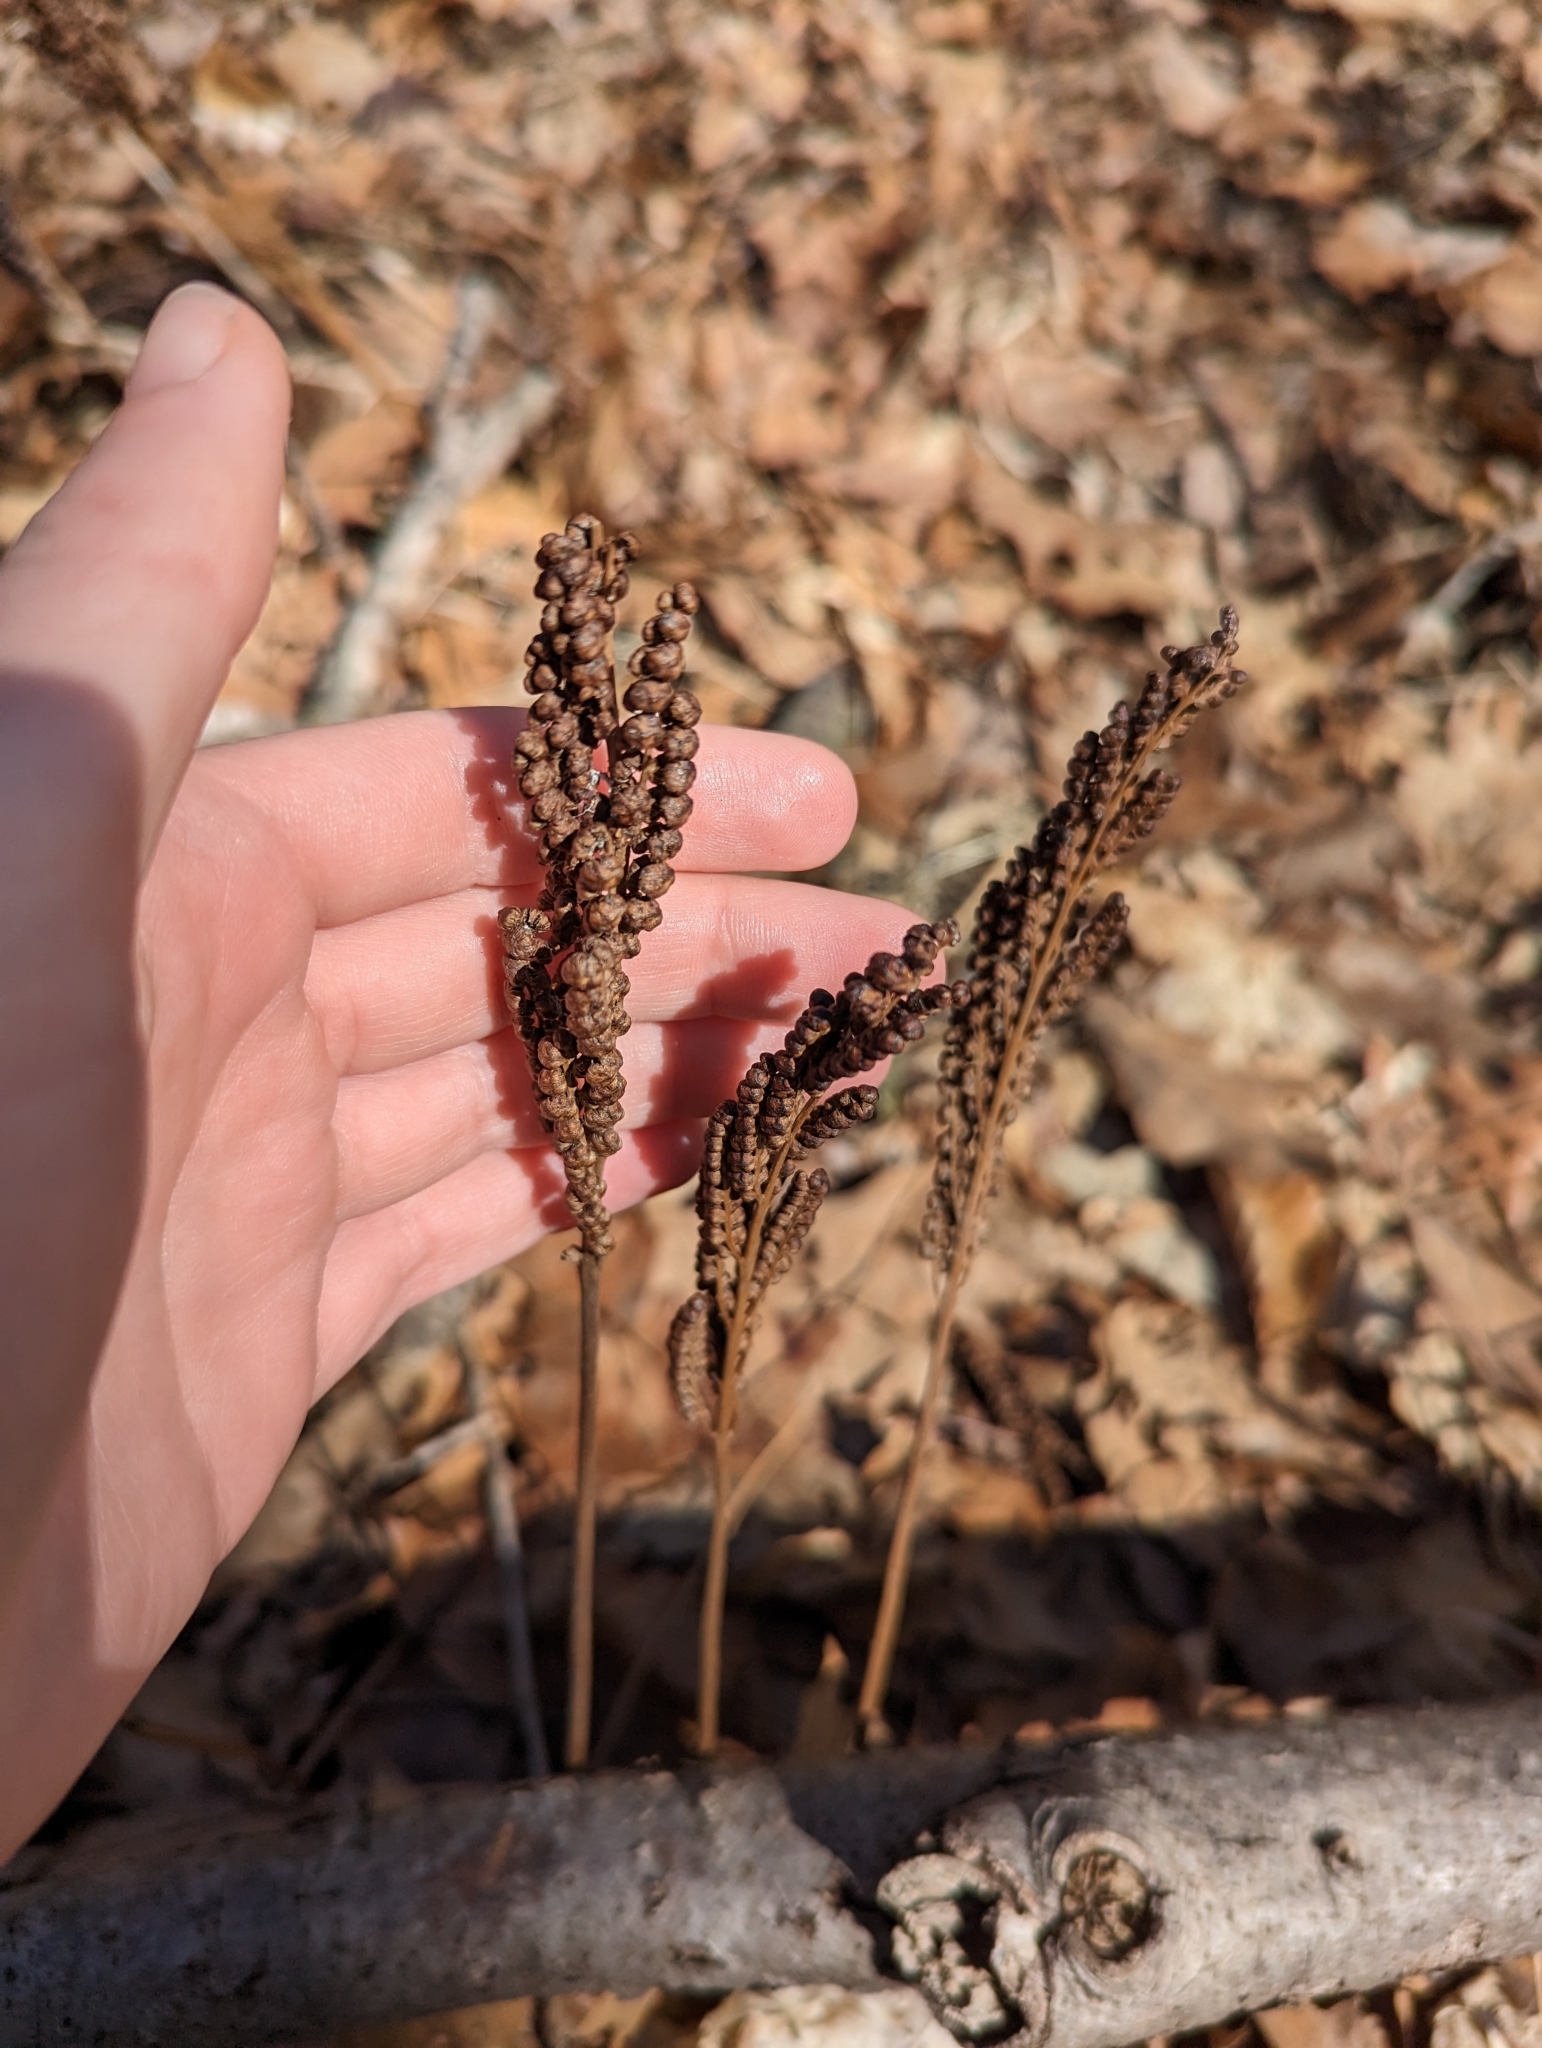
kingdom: Plantae
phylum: Tracheophyta
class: Polypodiopsida
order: Polypodiales
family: Onocleaceae
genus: Onoclea
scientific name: Onoclea sensibilis
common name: Sensitive fern
